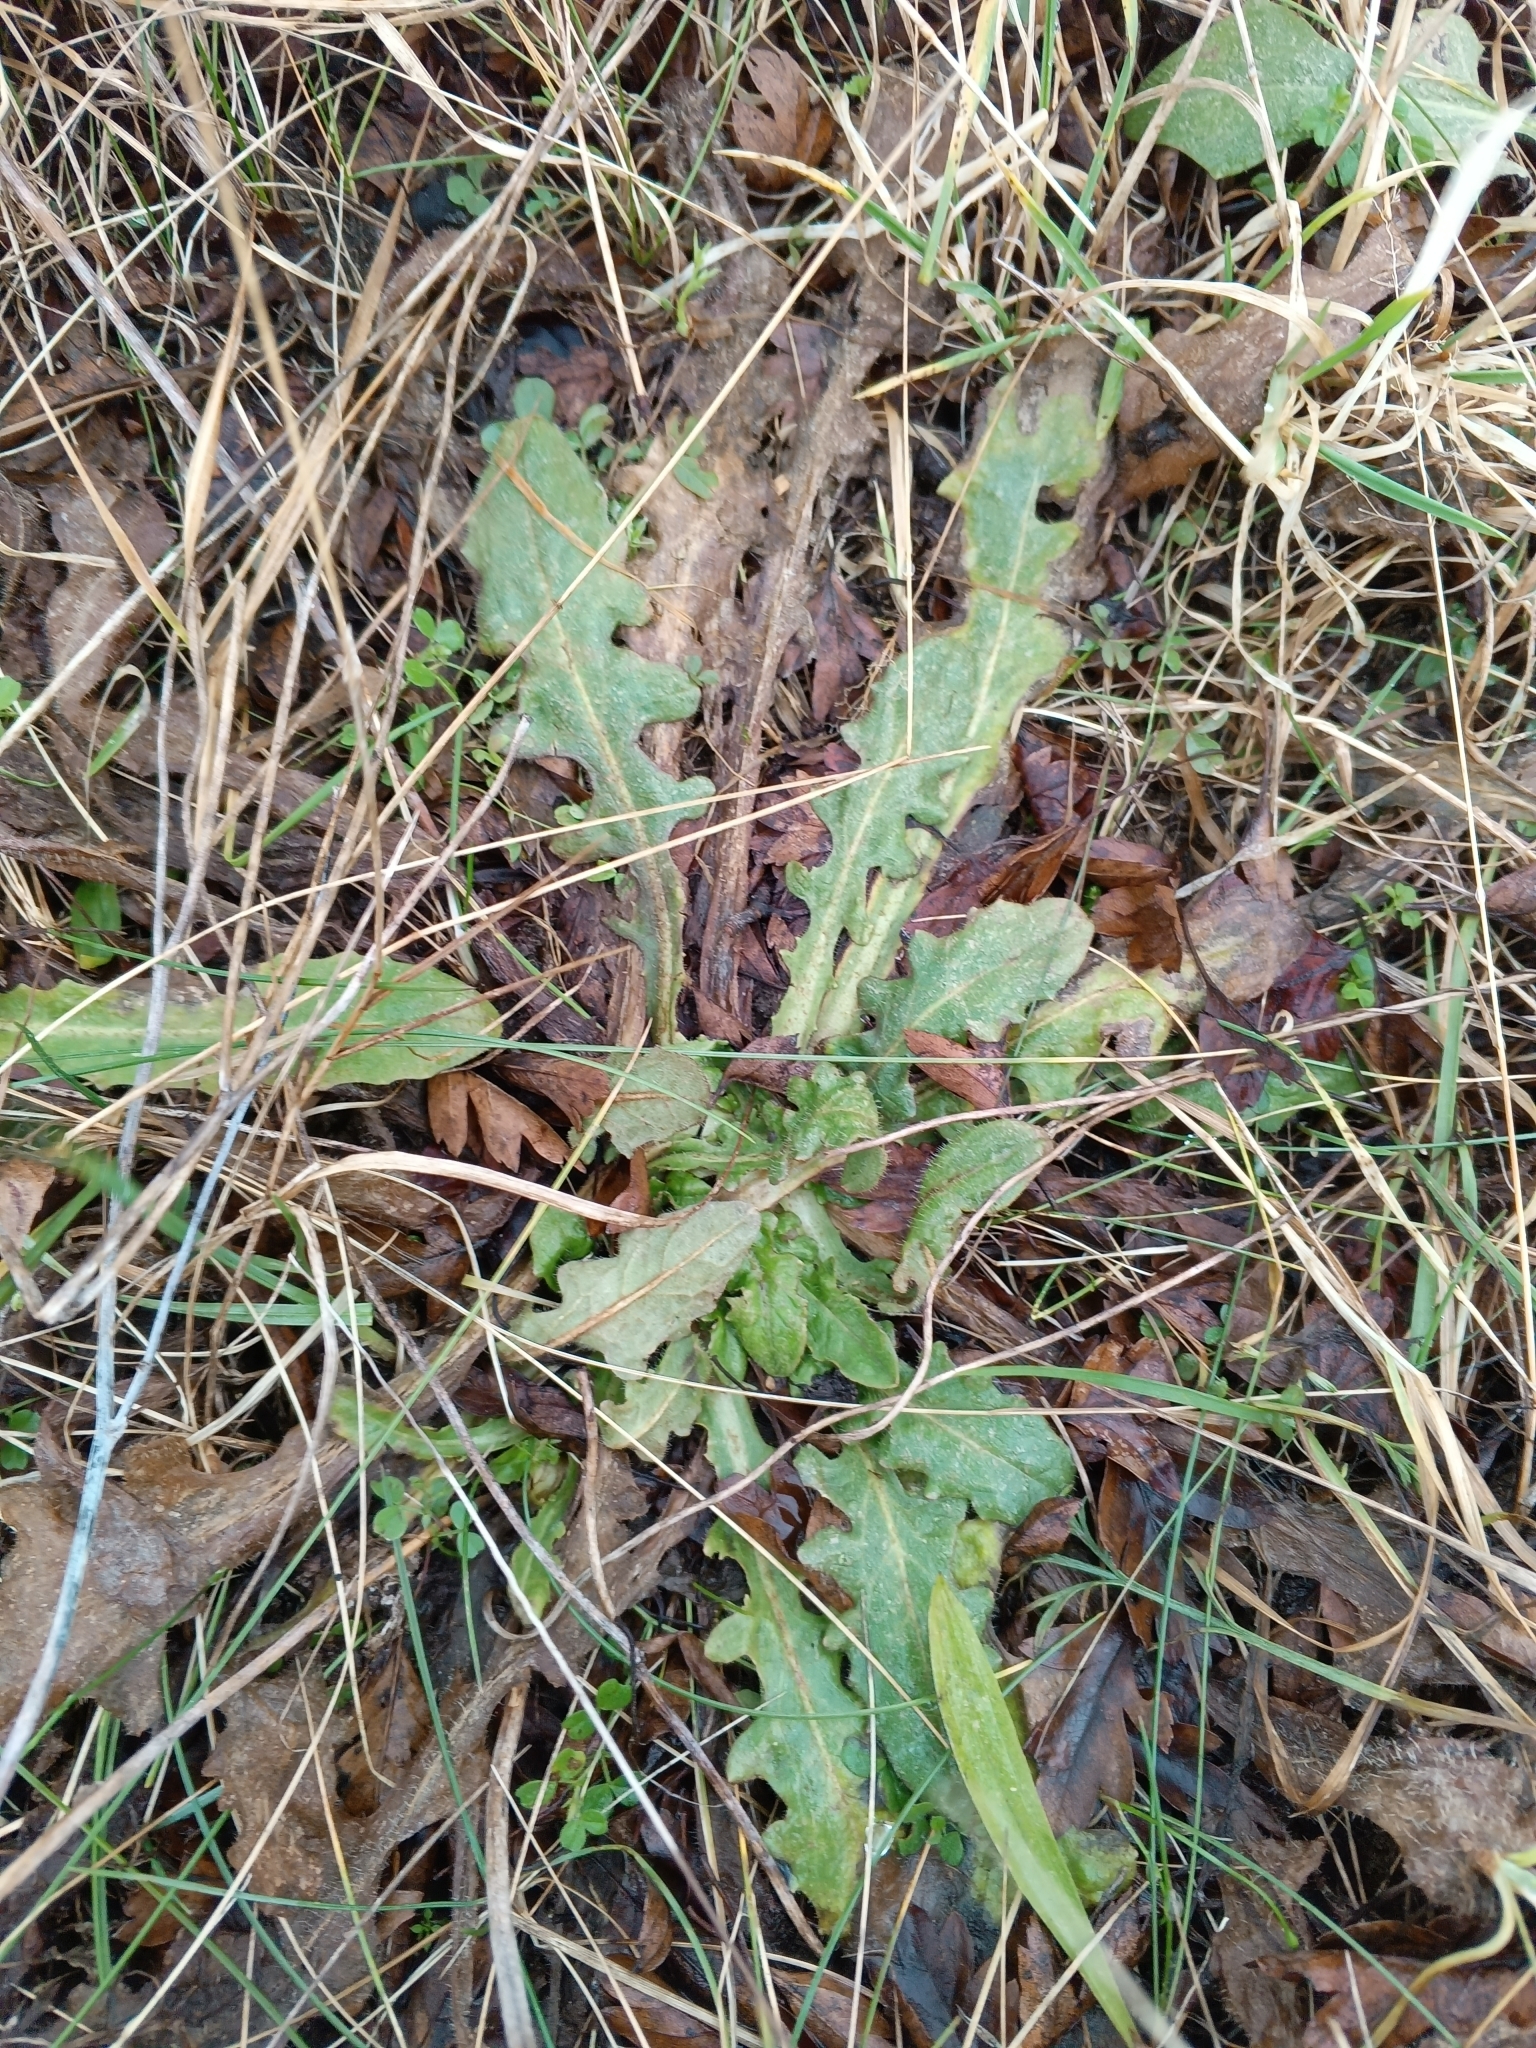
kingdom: Plantae
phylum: Tracheophyta
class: Magnoliopsida
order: Asterales
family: Asteraceae
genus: Hypochaeris
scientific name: Hypochaeris radicata
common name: Flatweed
